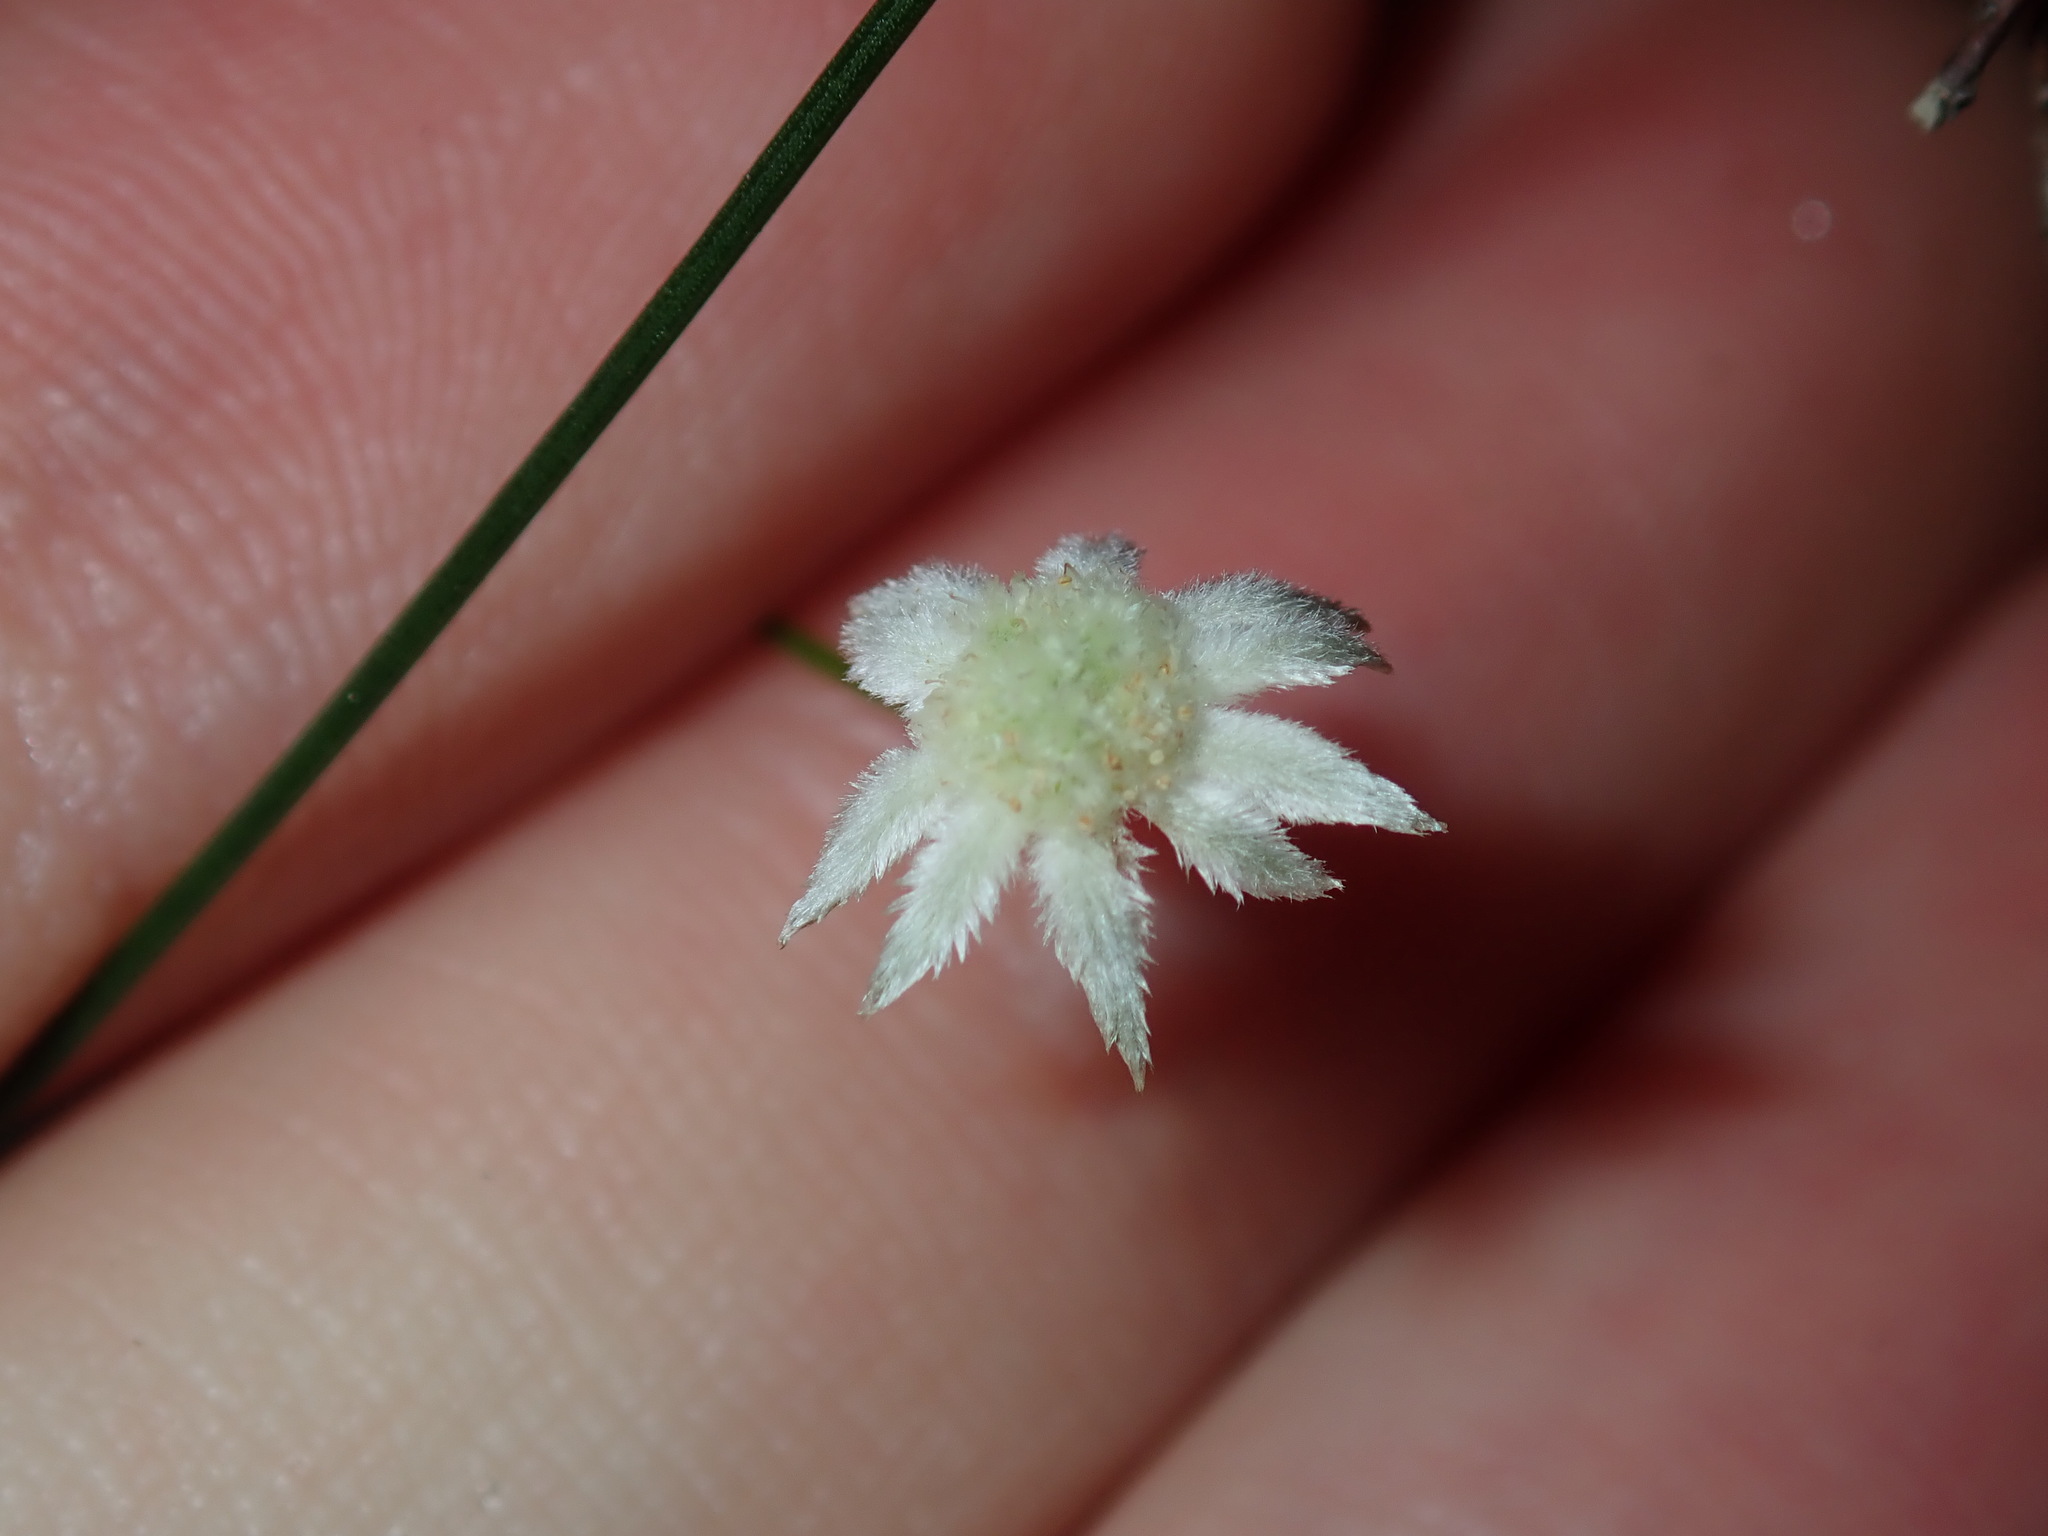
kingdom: Plantae
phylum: Tracheophyta
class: Magnoliopsida
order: Apiales
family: Apiaceae
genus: Actinotus
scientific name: Actinotus minor
